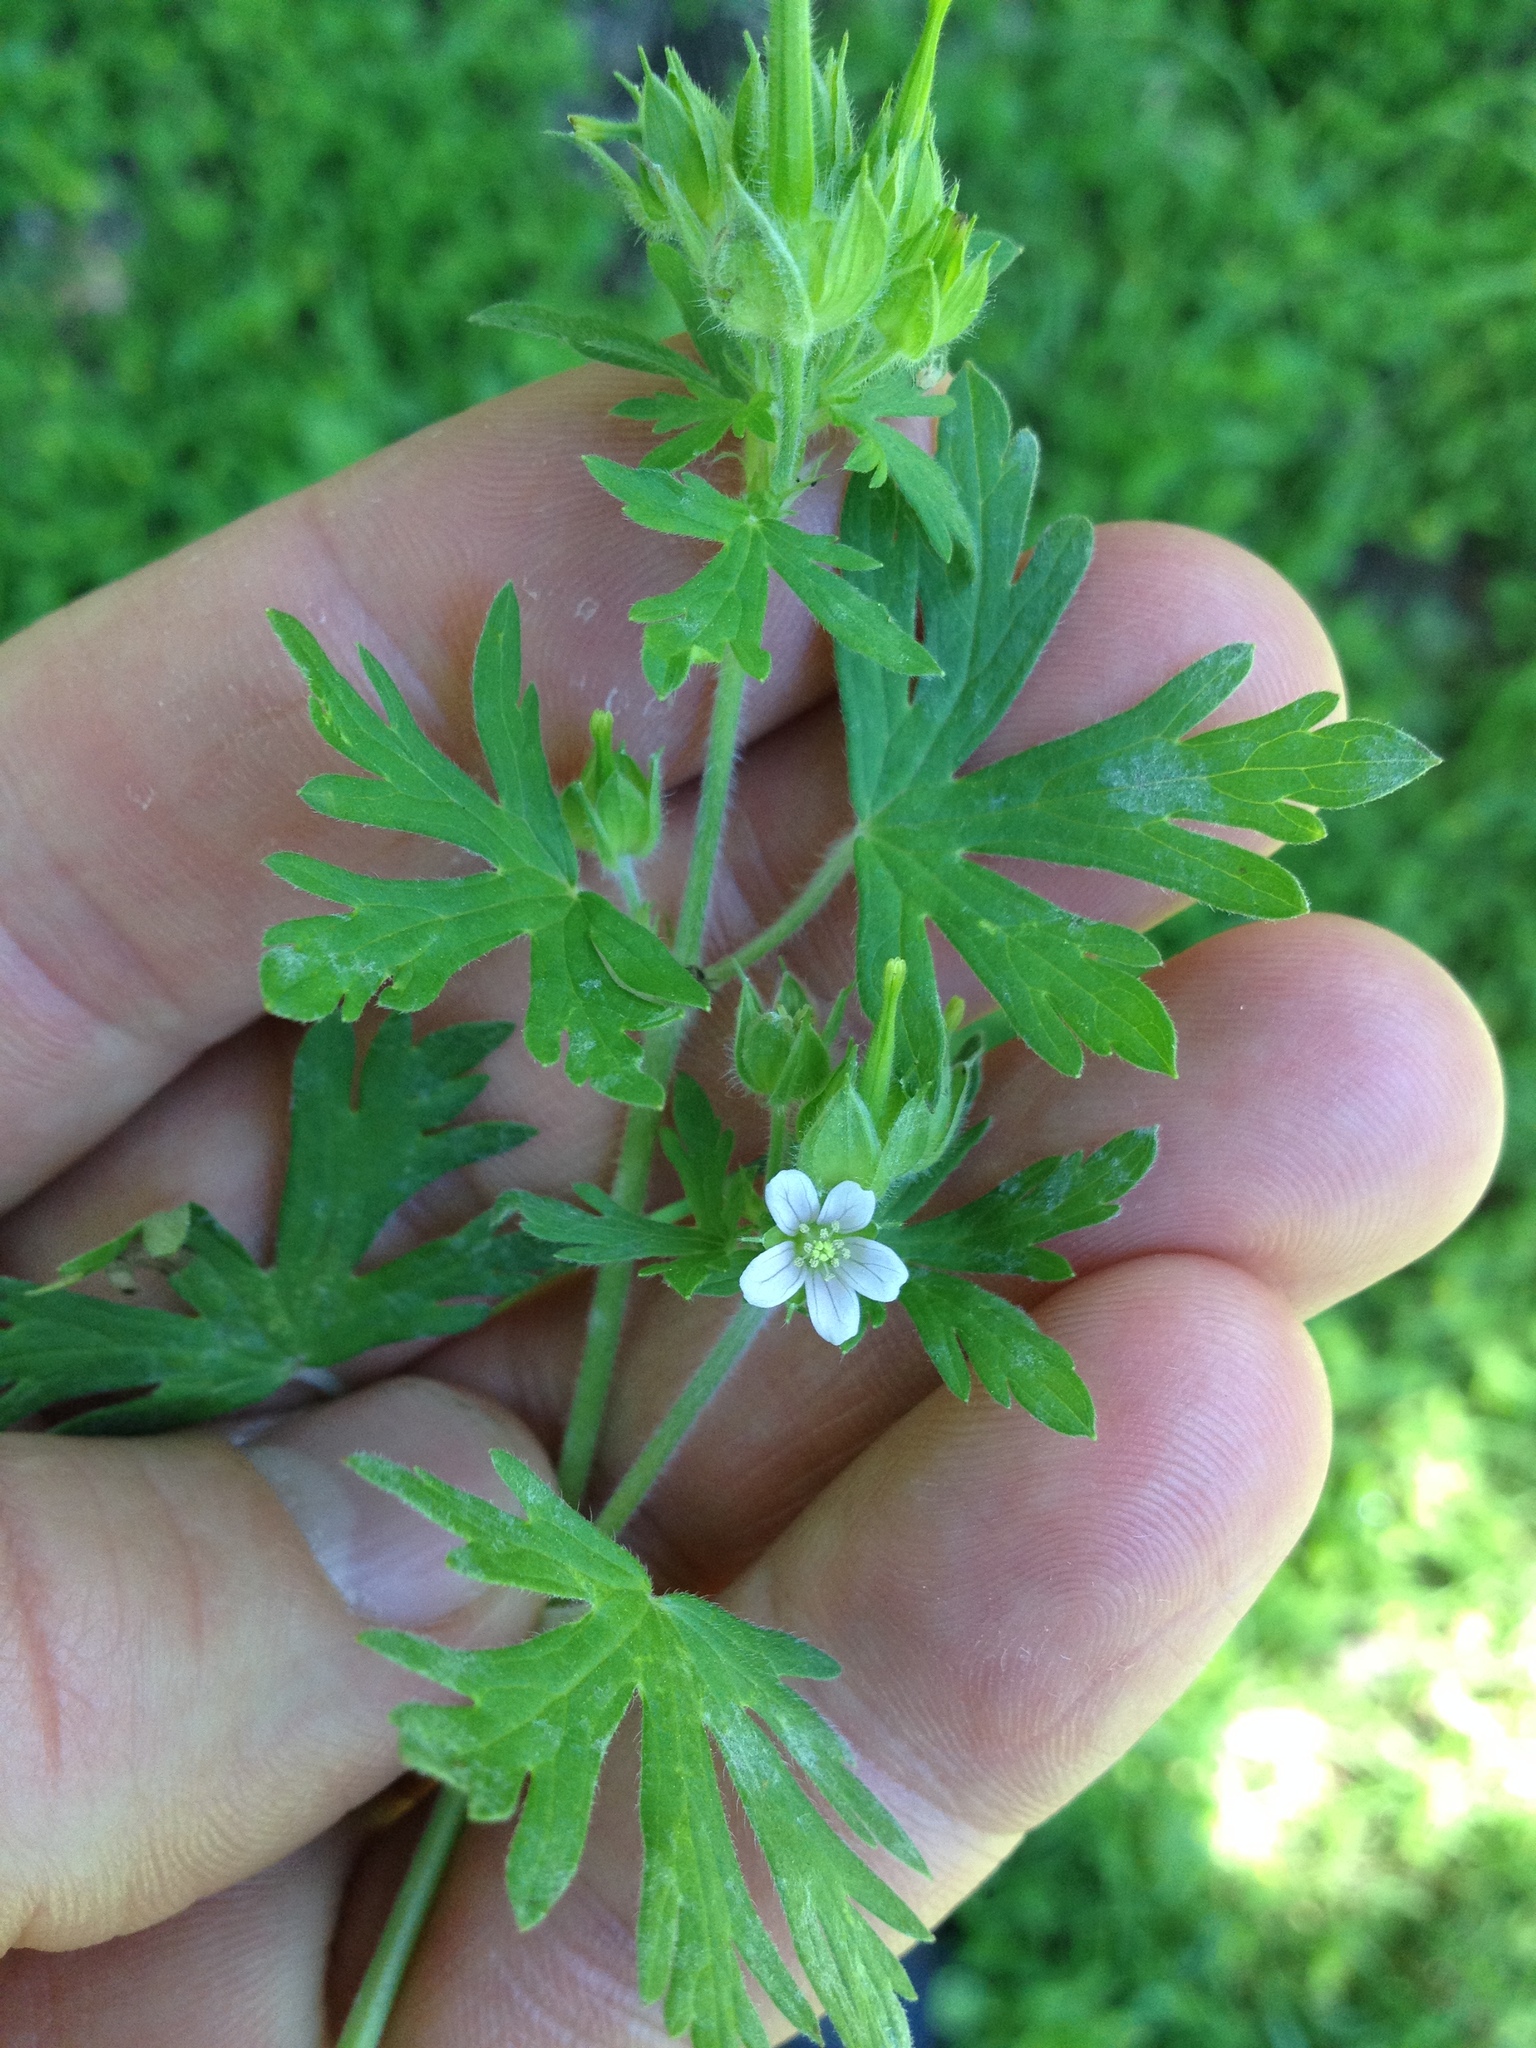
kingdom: Plantae
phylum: Tracheophyta
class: Magnoliopsida
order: Geraniales
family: Geraniaceae
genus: Geranium
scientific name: Geranium carolinianum
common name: Carolina crane's-bill
